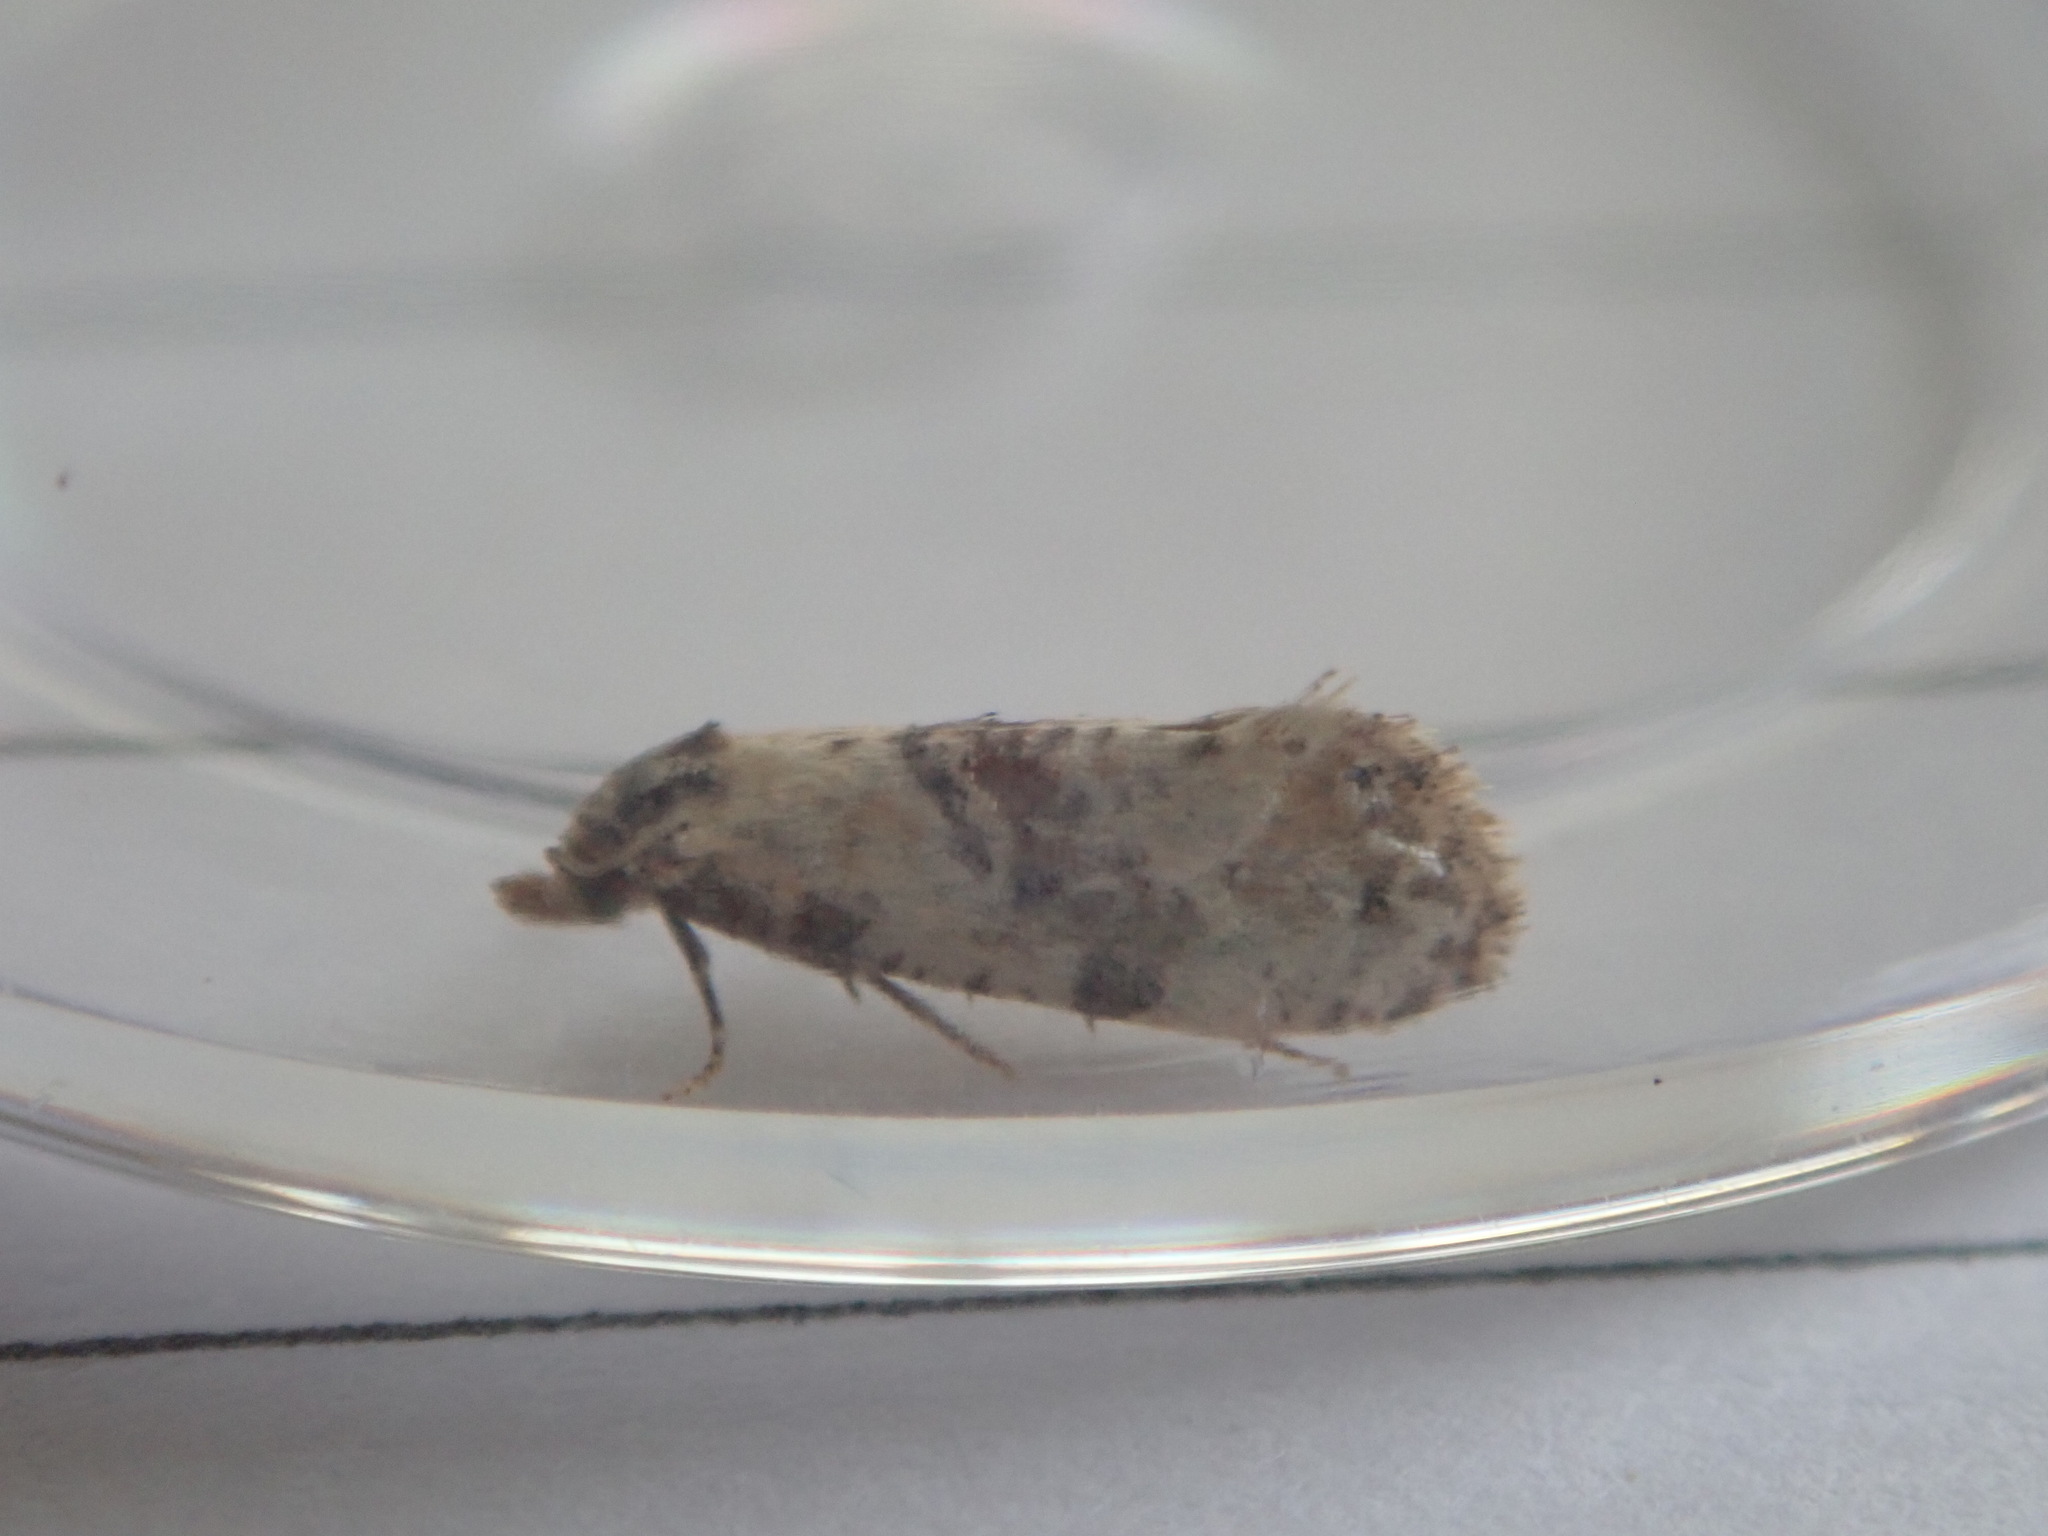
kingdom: Animalia
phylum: Arthropoda
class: Insecta
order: Lepidoptera
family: Tortricidae
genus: Cochylis
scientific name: Cochylis molliculana
